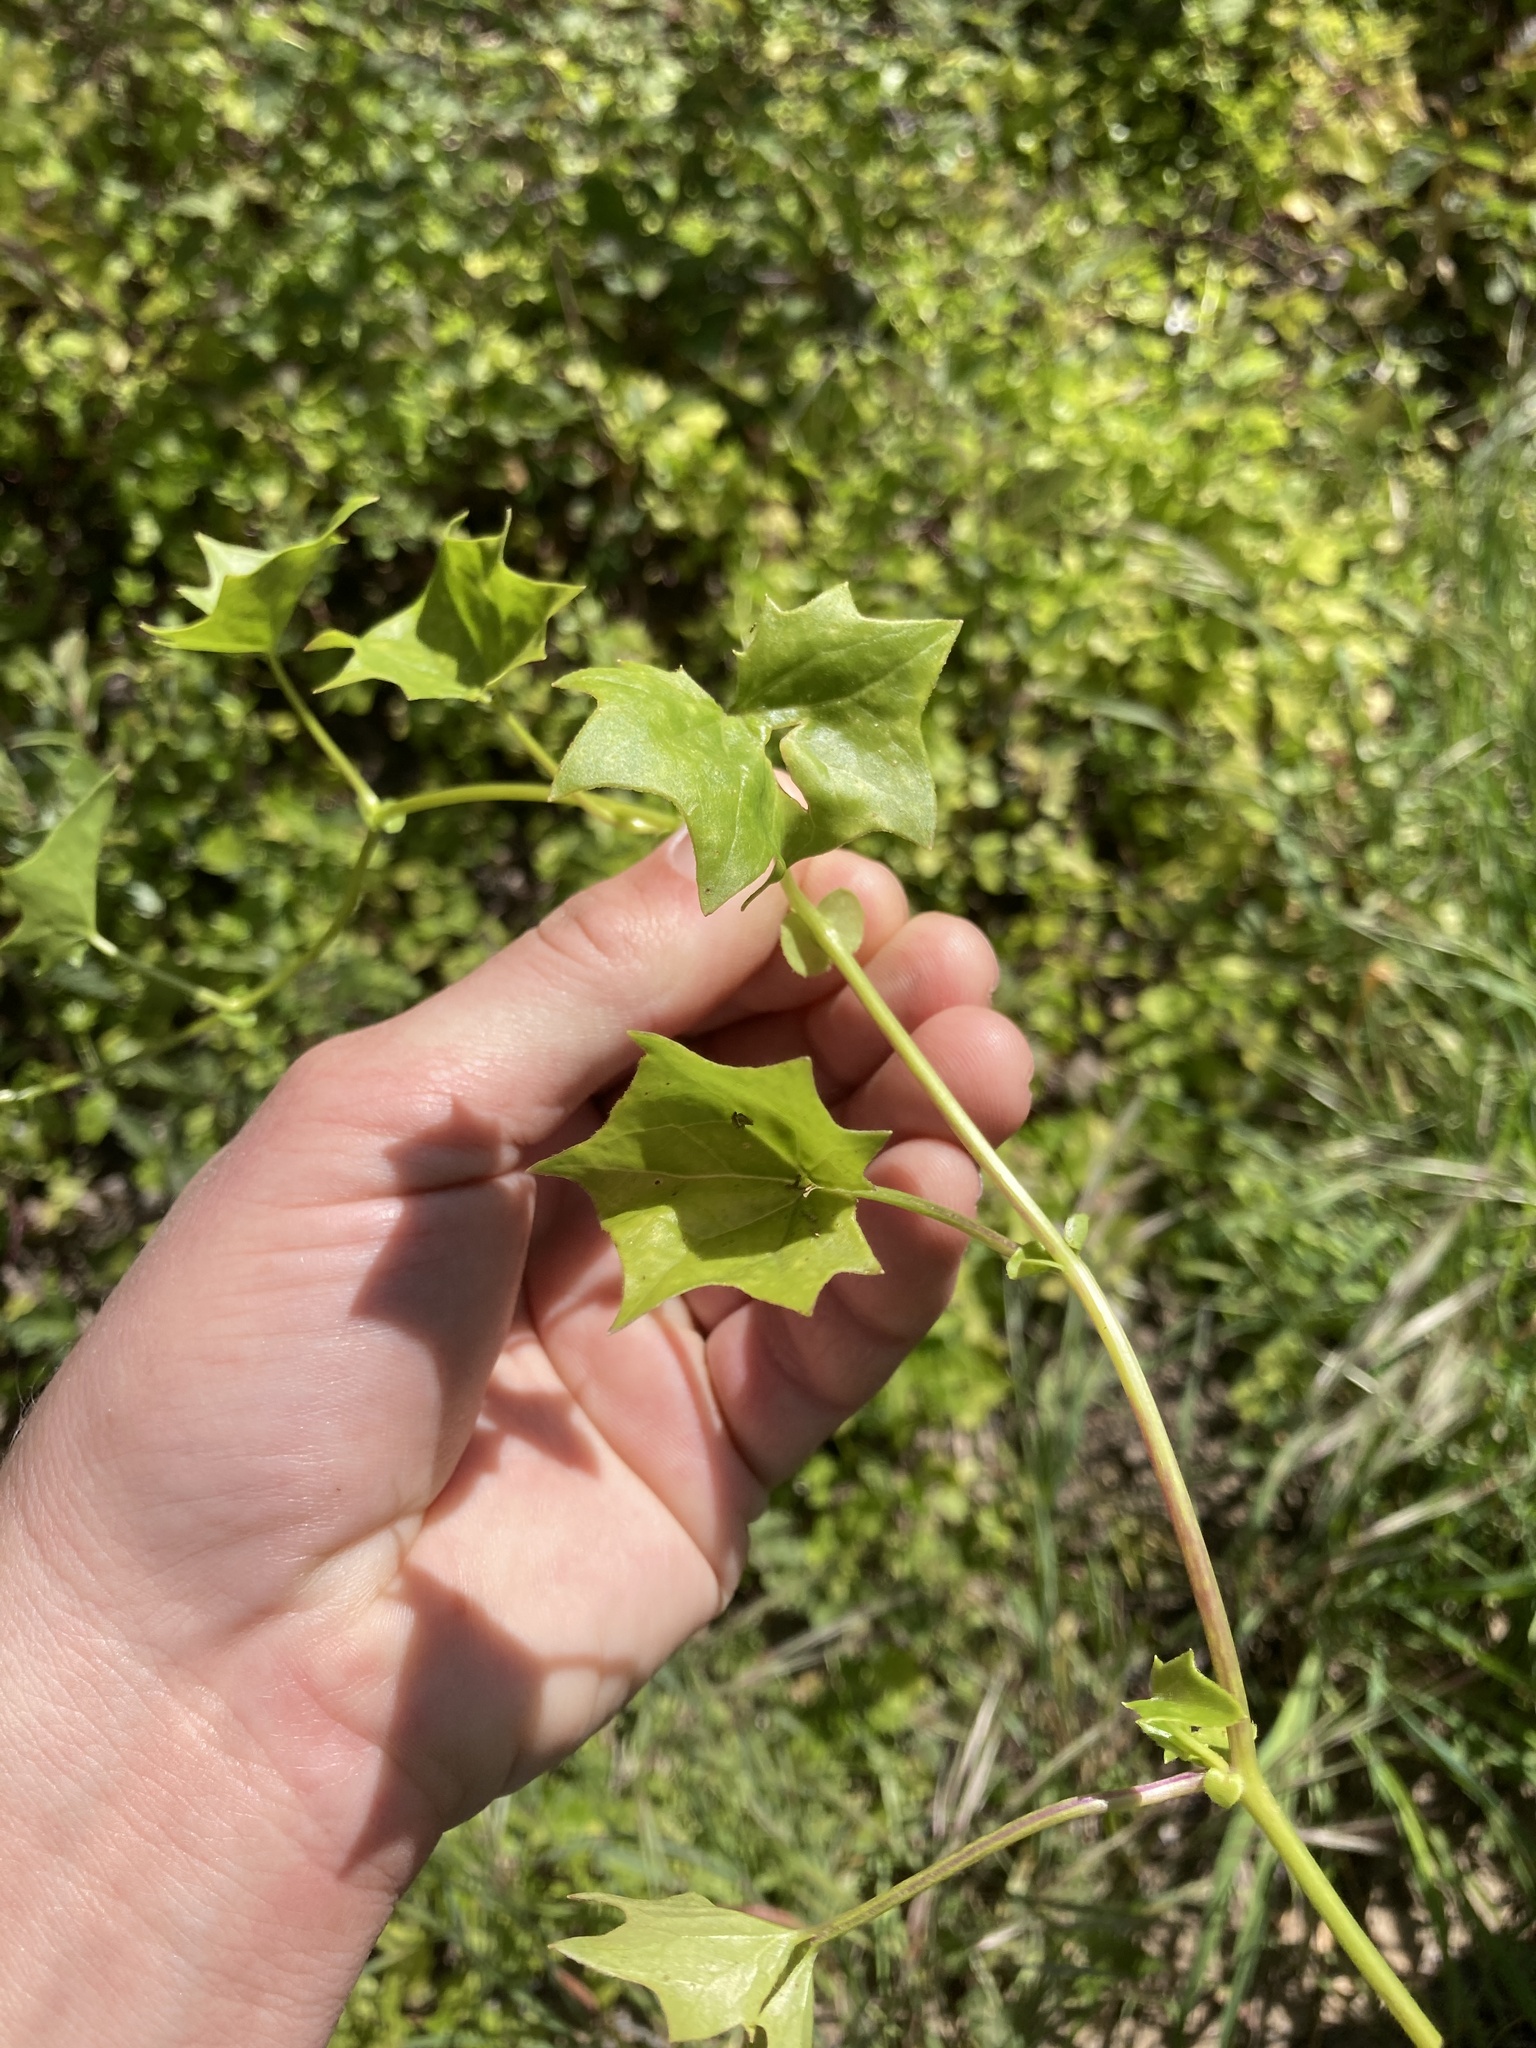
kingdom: Plantae
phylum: Tracheophyta
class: Magnoliopsida
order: Asterales
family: Asteraceae
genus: Delairea
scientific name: Delairea odorata
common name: Cape-ivy
